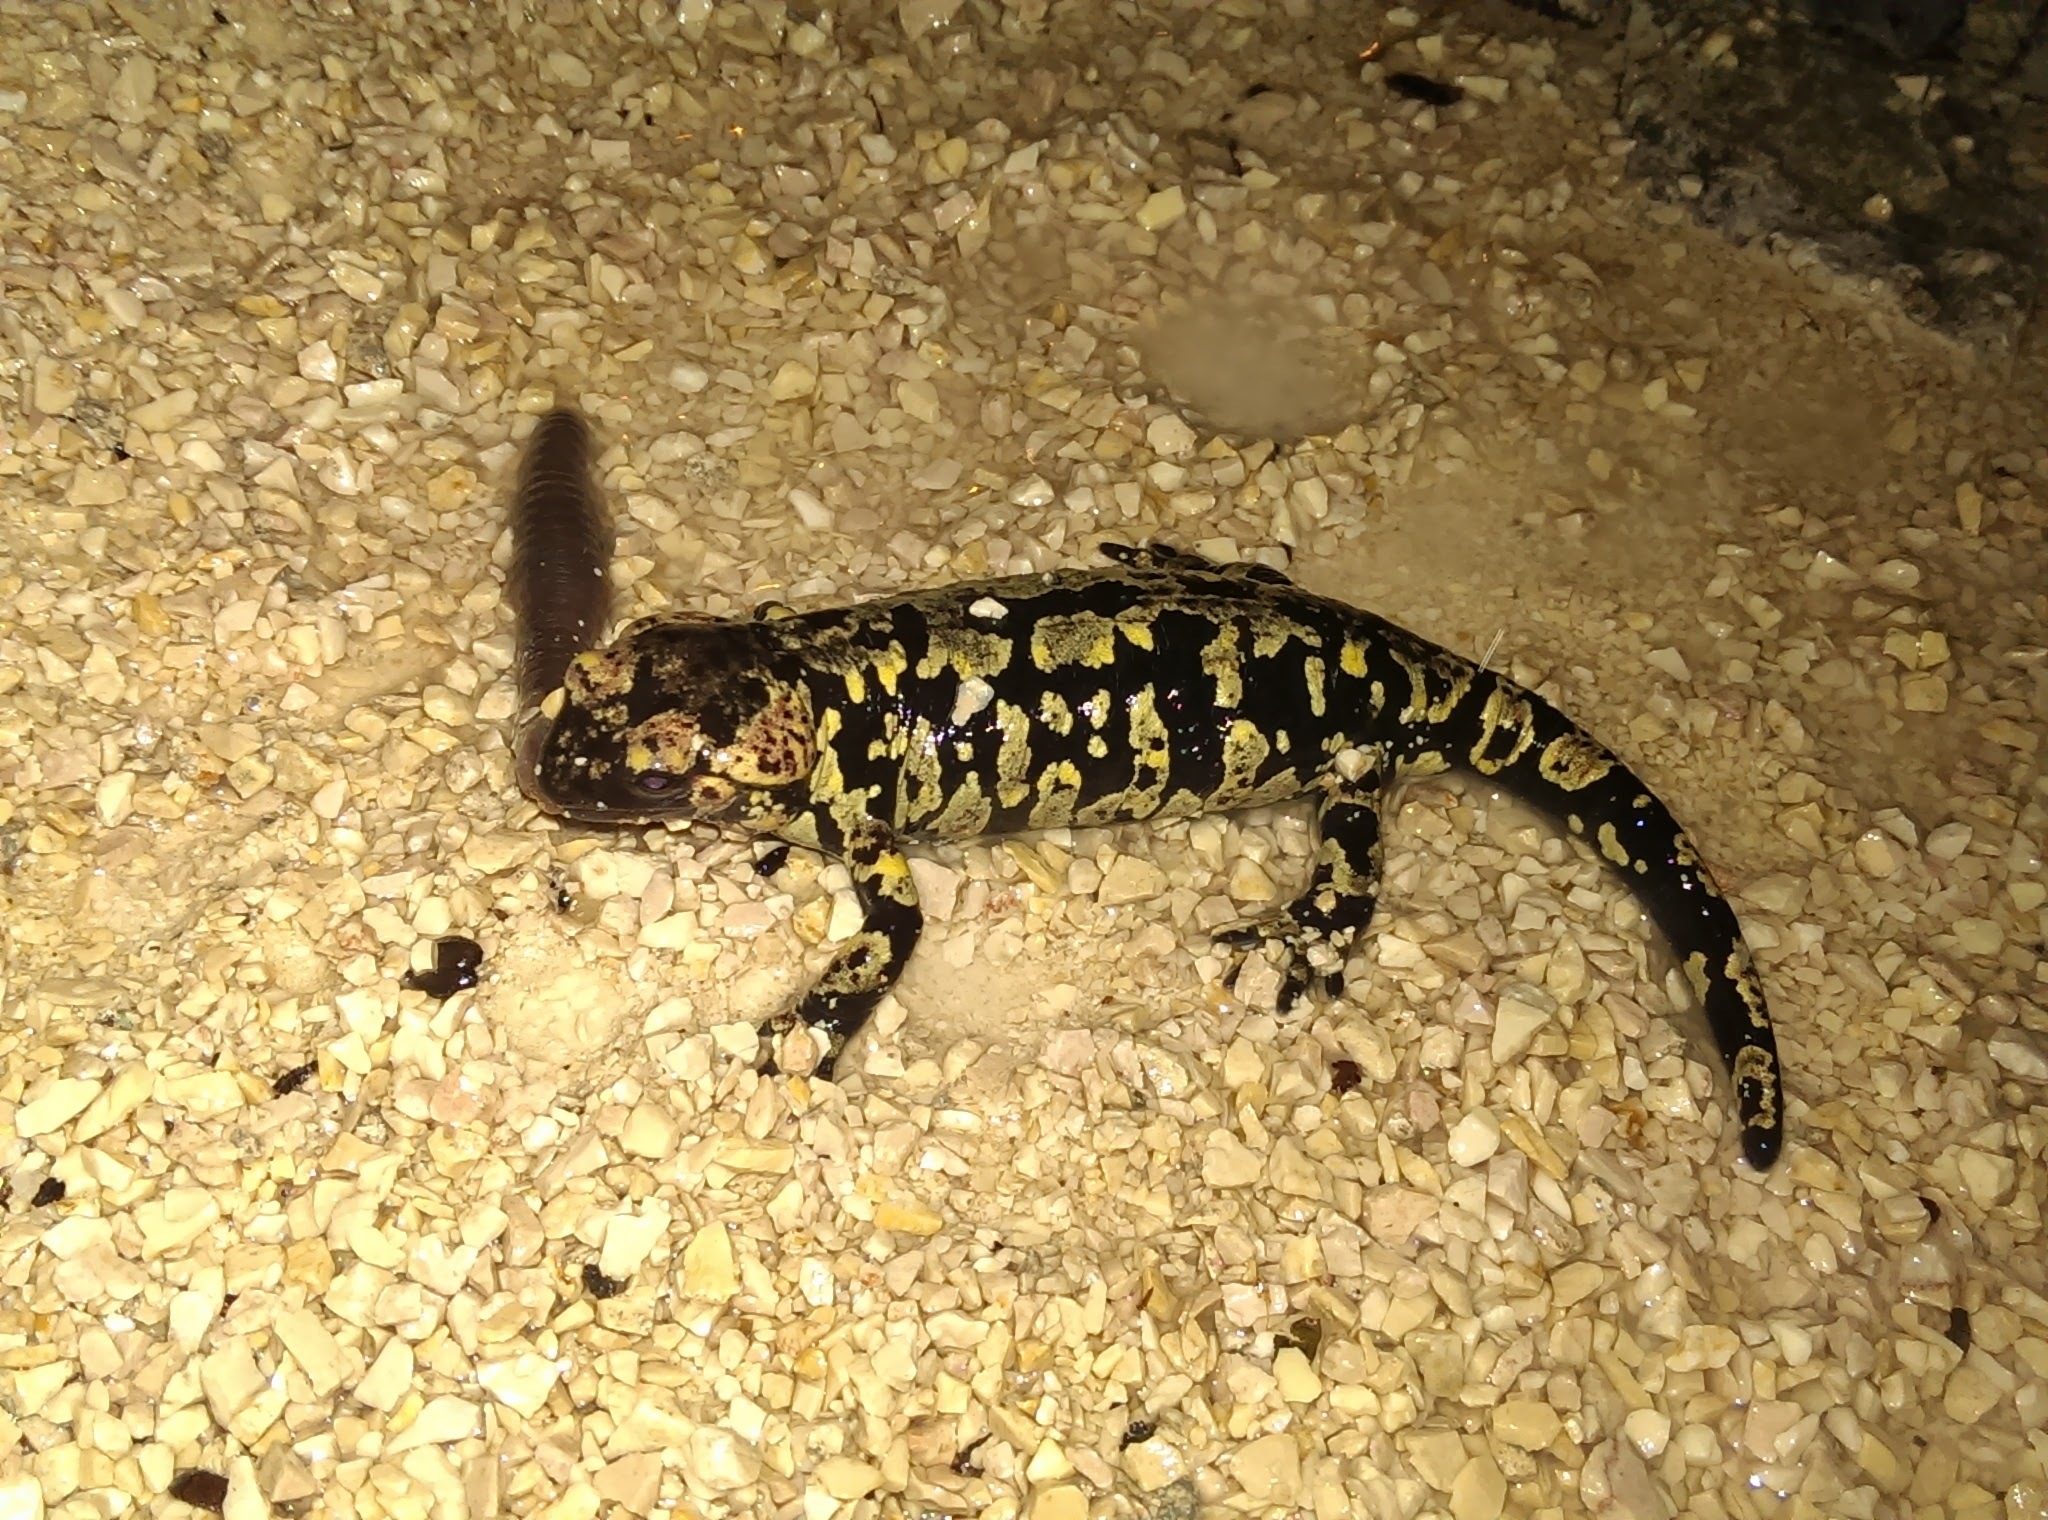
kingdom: Animalia
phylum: Chordata
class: Amphibia
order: Caudata
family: Salamandridae
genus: Salamandra
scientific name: Salamandra salamandra
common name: Fire salamander
